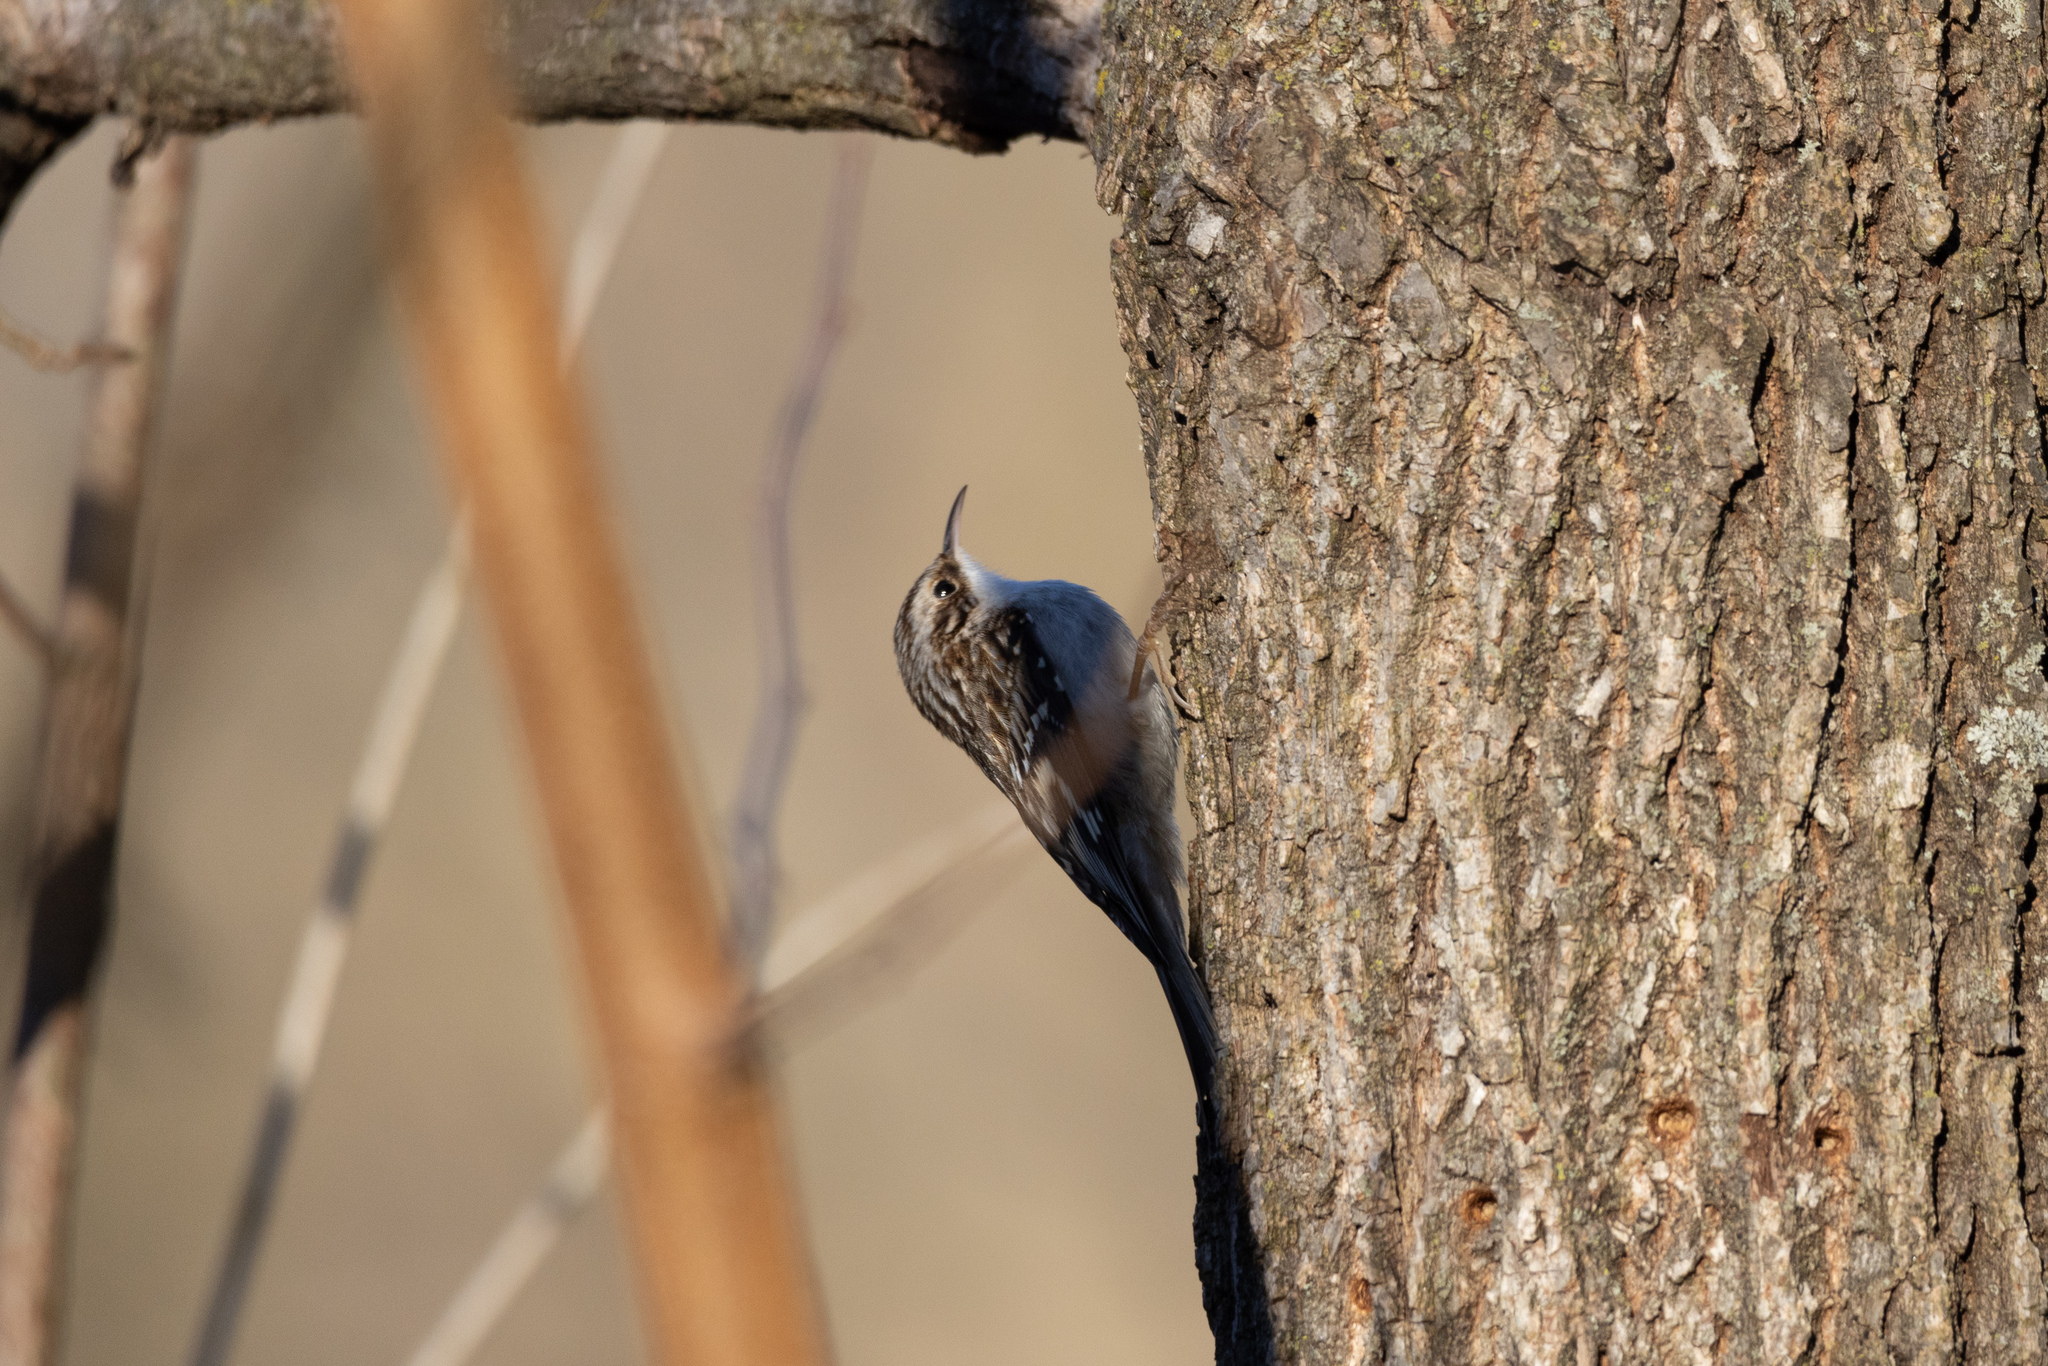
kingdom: Animalia
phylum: Chordata
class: Aves
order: Passeriformes
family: Certhiidae
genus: Certhia
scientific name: Certhia americana
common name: Brown creeper
